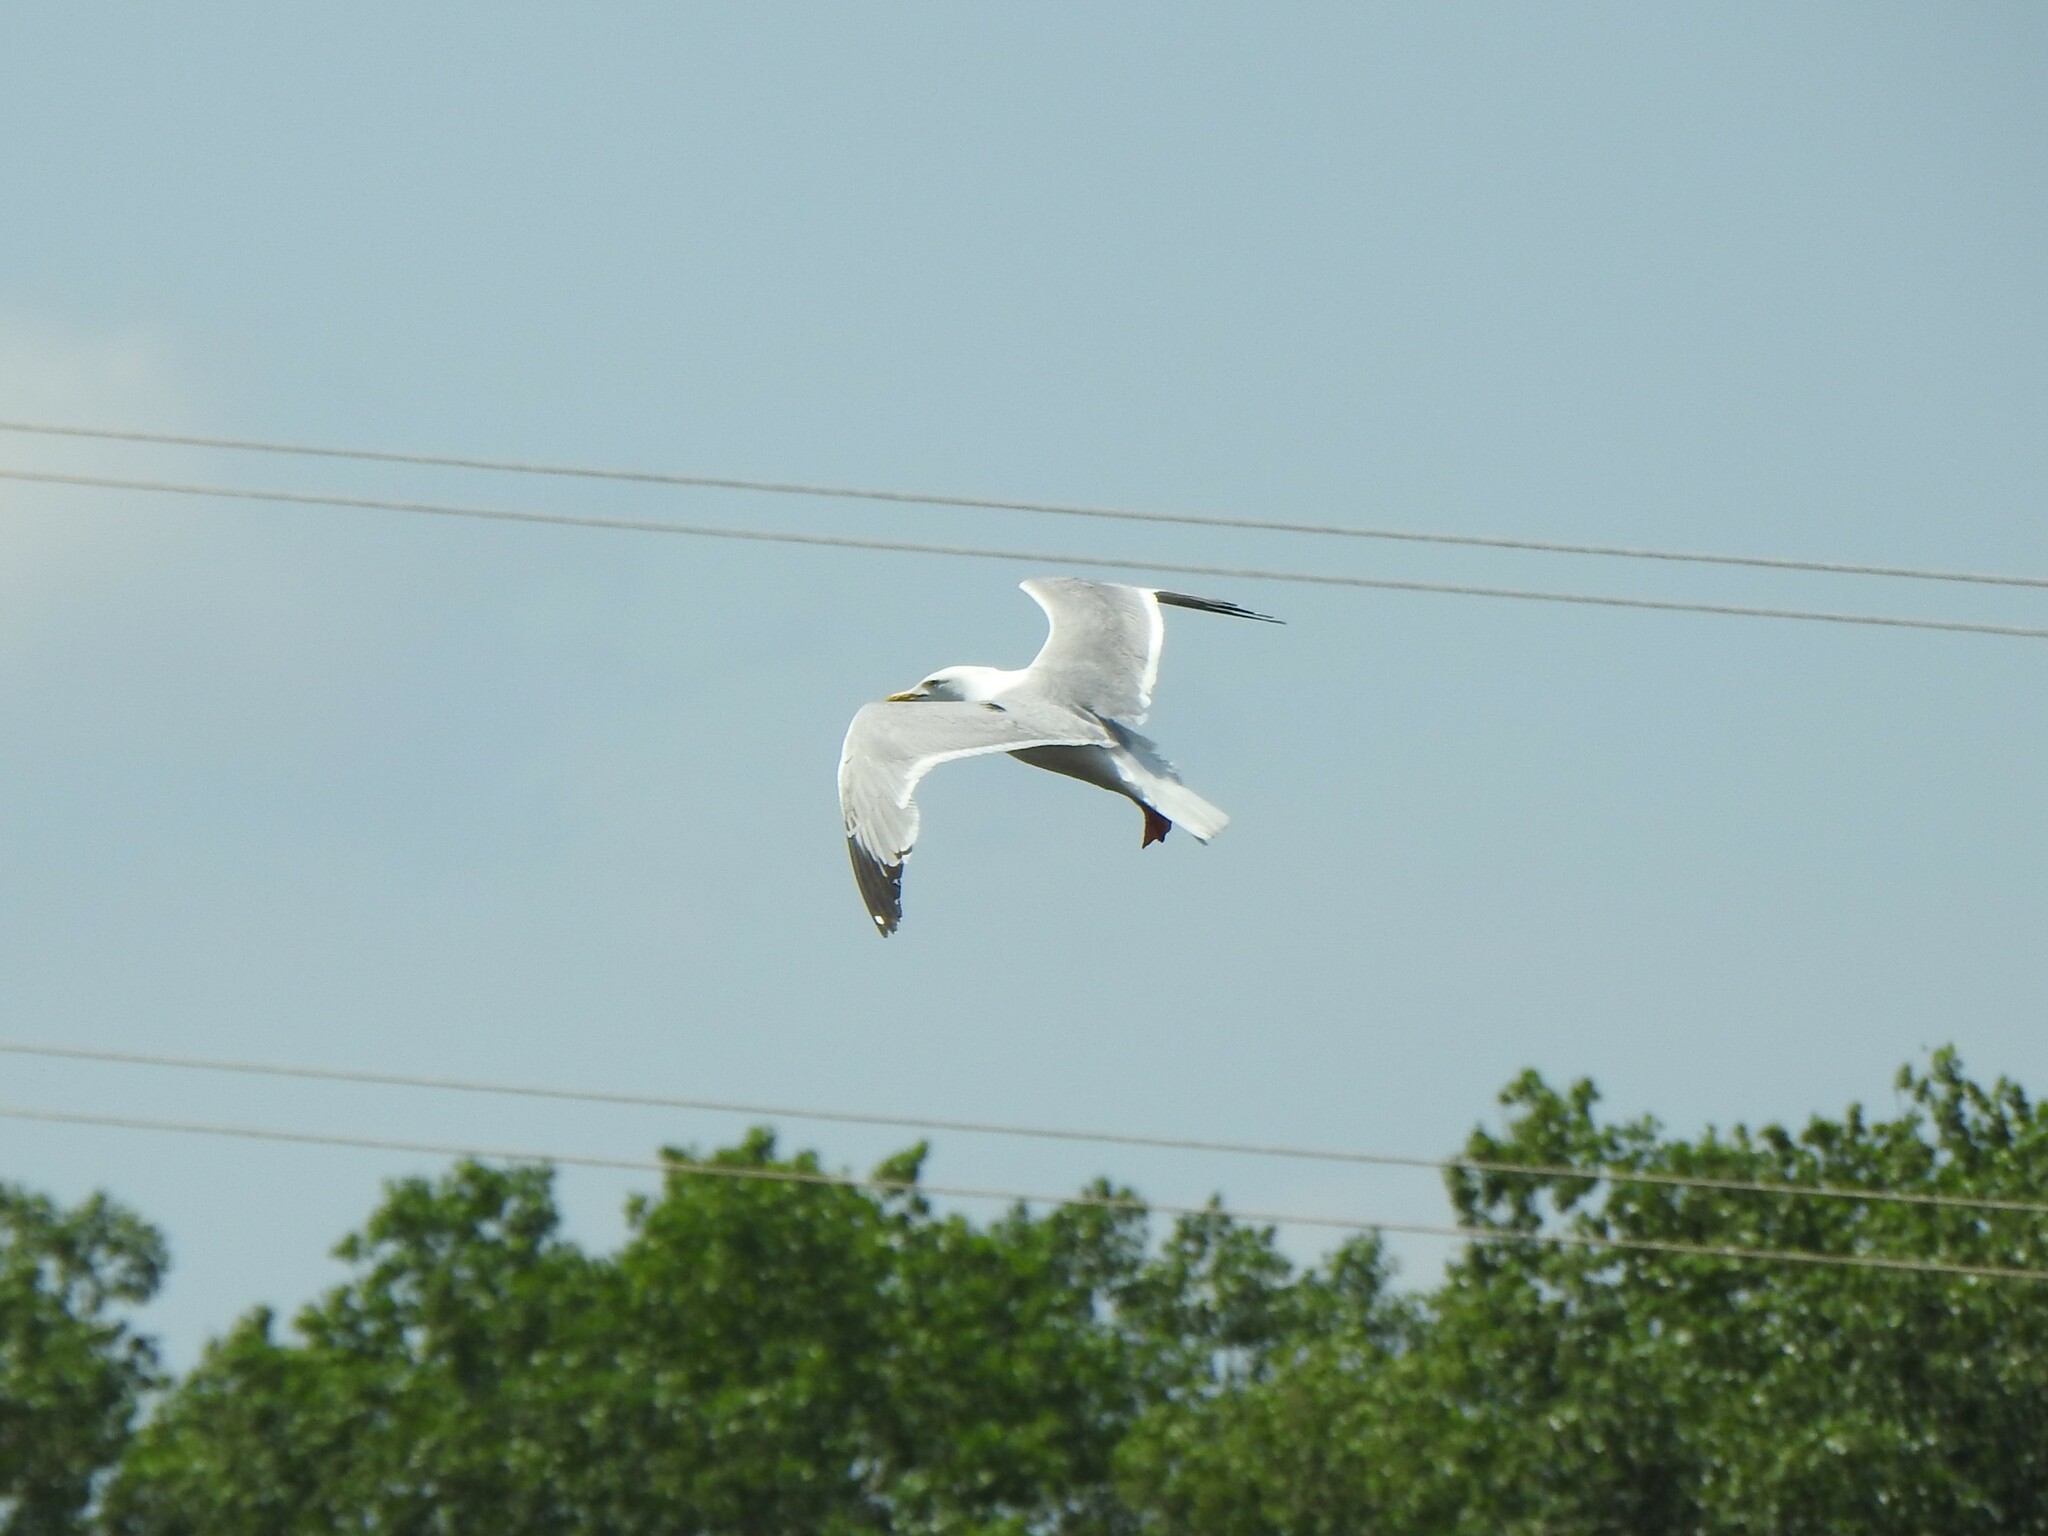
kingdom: Animalia
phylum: Chordata
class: Aves
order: Charadriiformes
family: Laridae
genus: Larus
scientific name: Larus argentatus
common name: Herring gull
